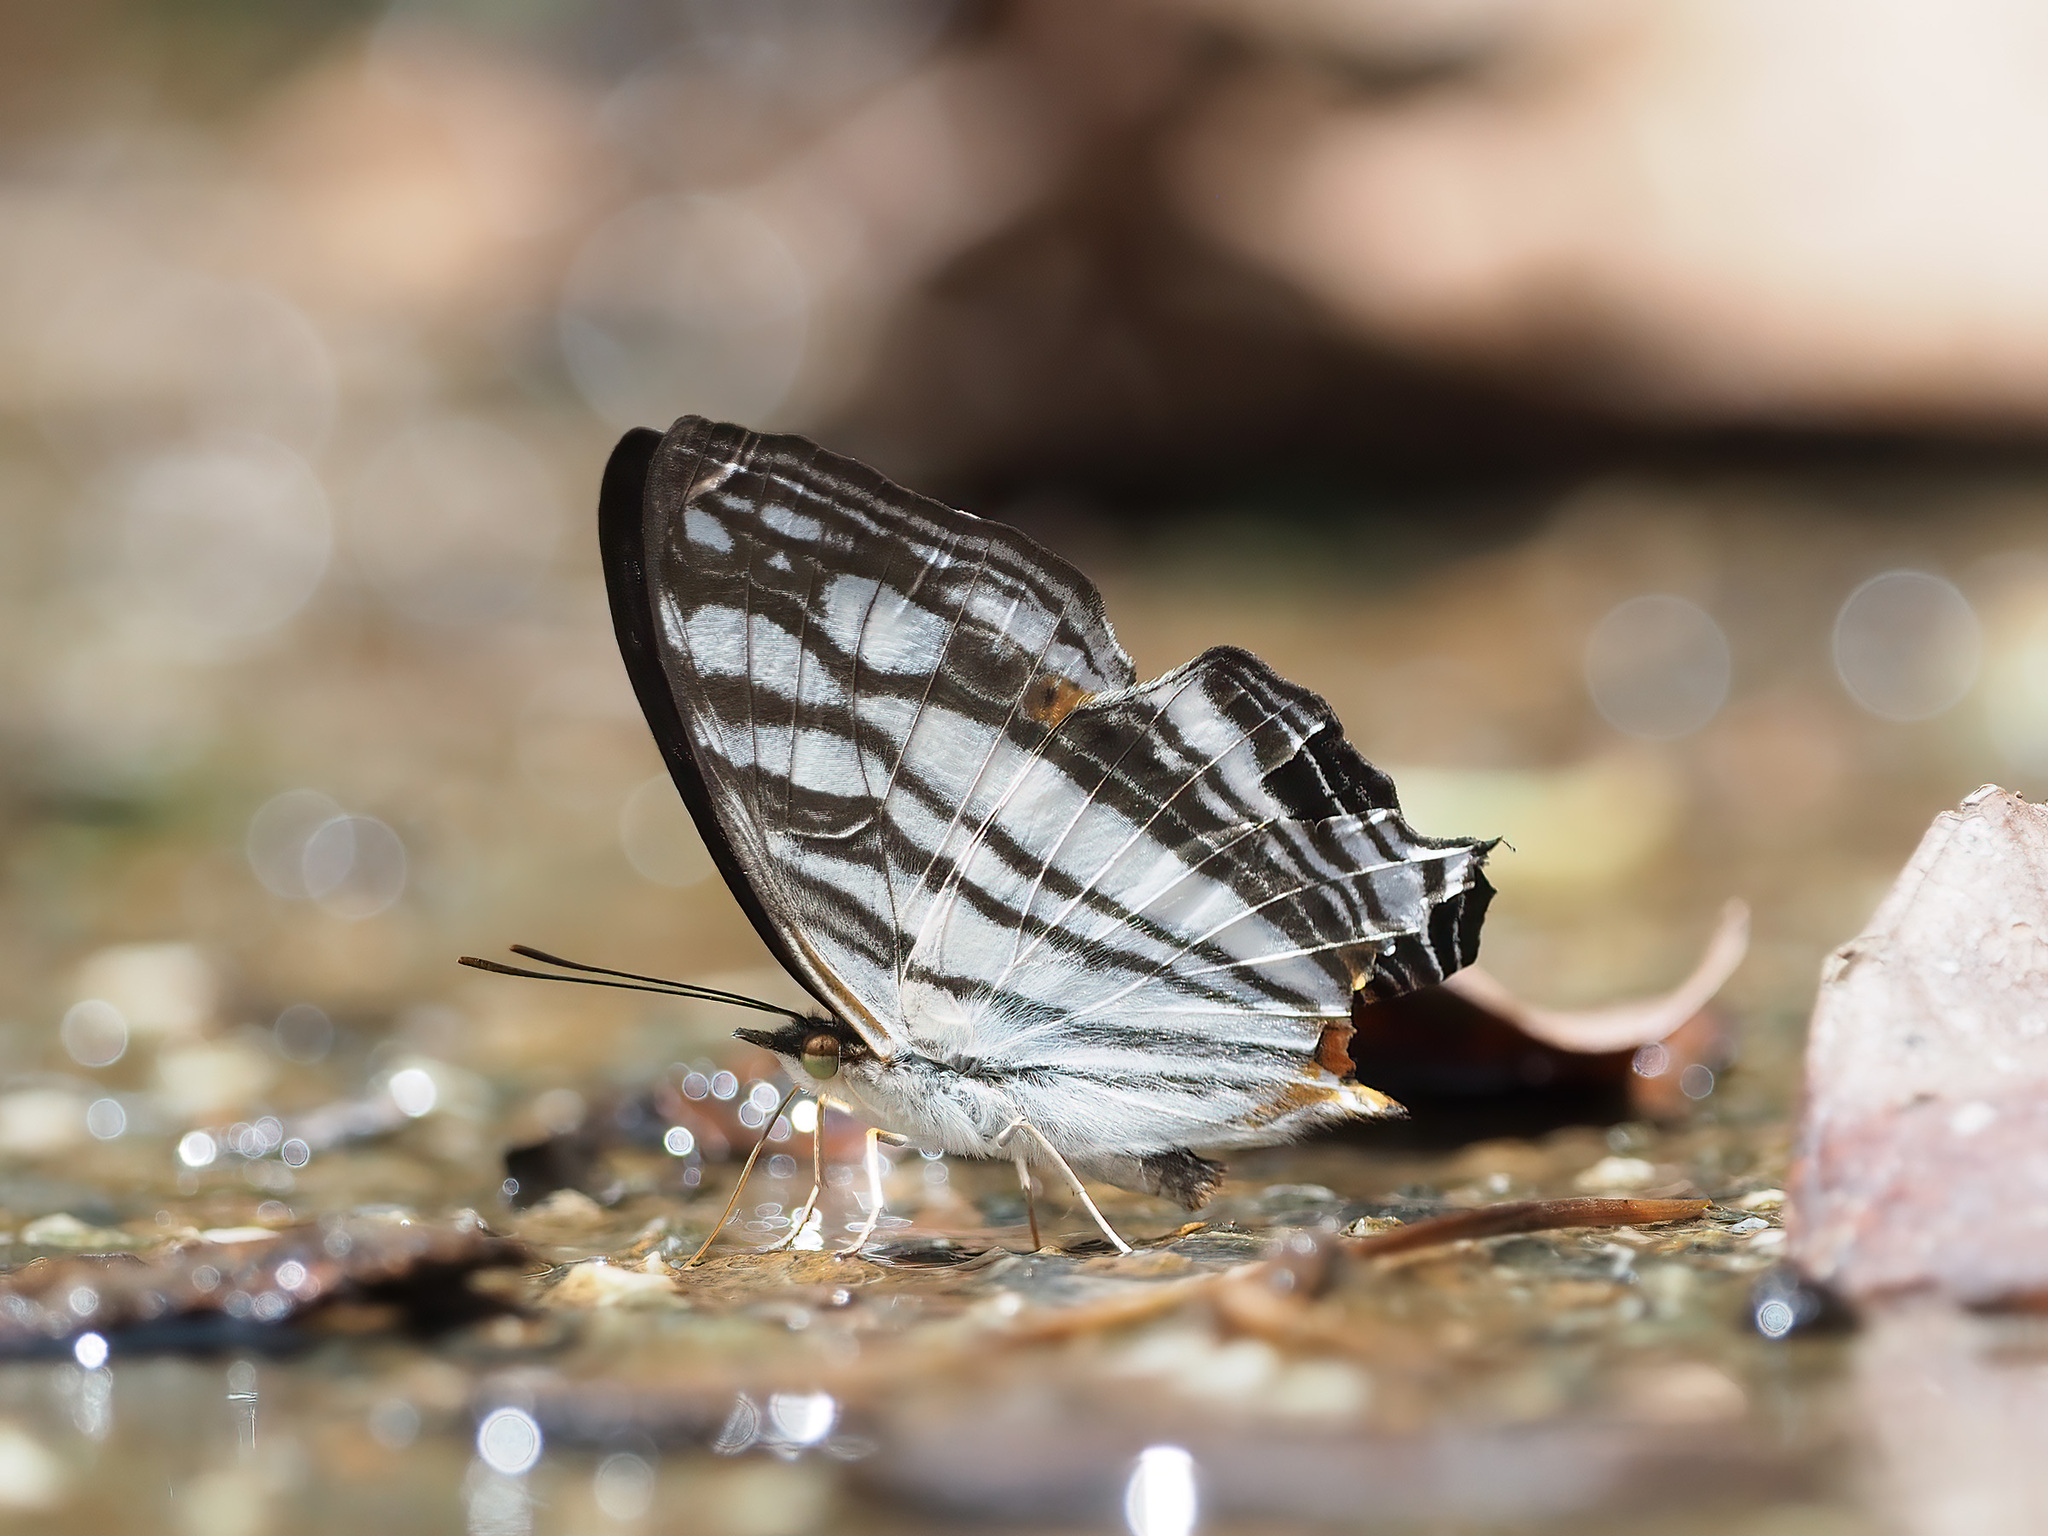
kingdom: Animalia
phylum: Arthropoda
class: Insecta
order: Lepidoptera
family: Nymphalidae
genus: Cyrestis
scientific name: Cyrestis maenalis
